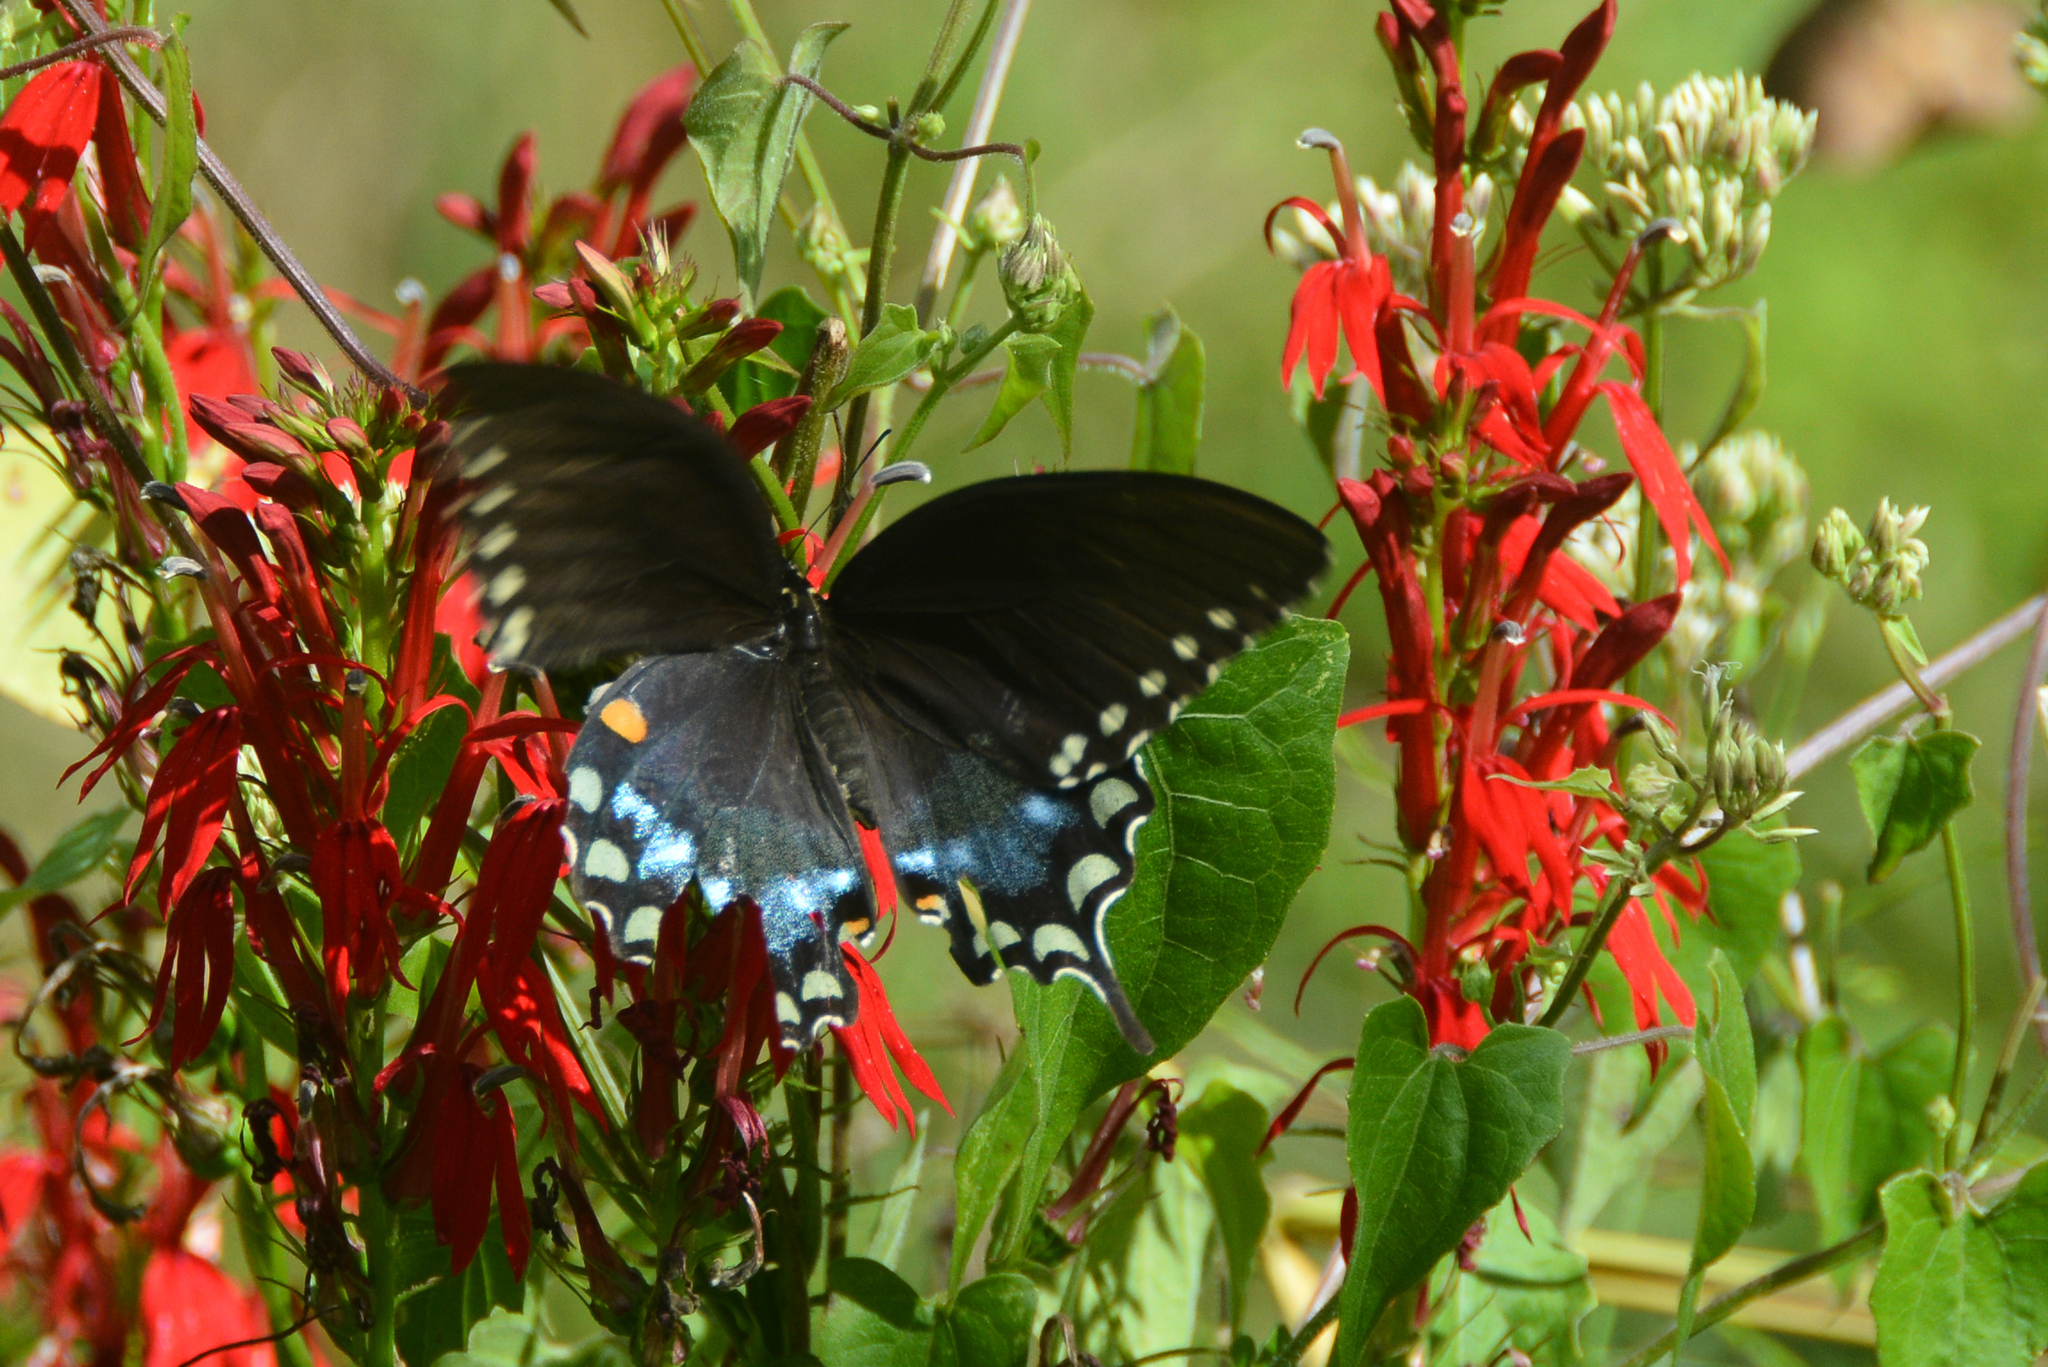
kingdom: Animalia
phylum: Arthropoda
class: Insecta
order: Lepidoptera
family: Papilionidae
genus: Papilio
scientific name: Papilio troilus
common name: Spicebush swallowtail
